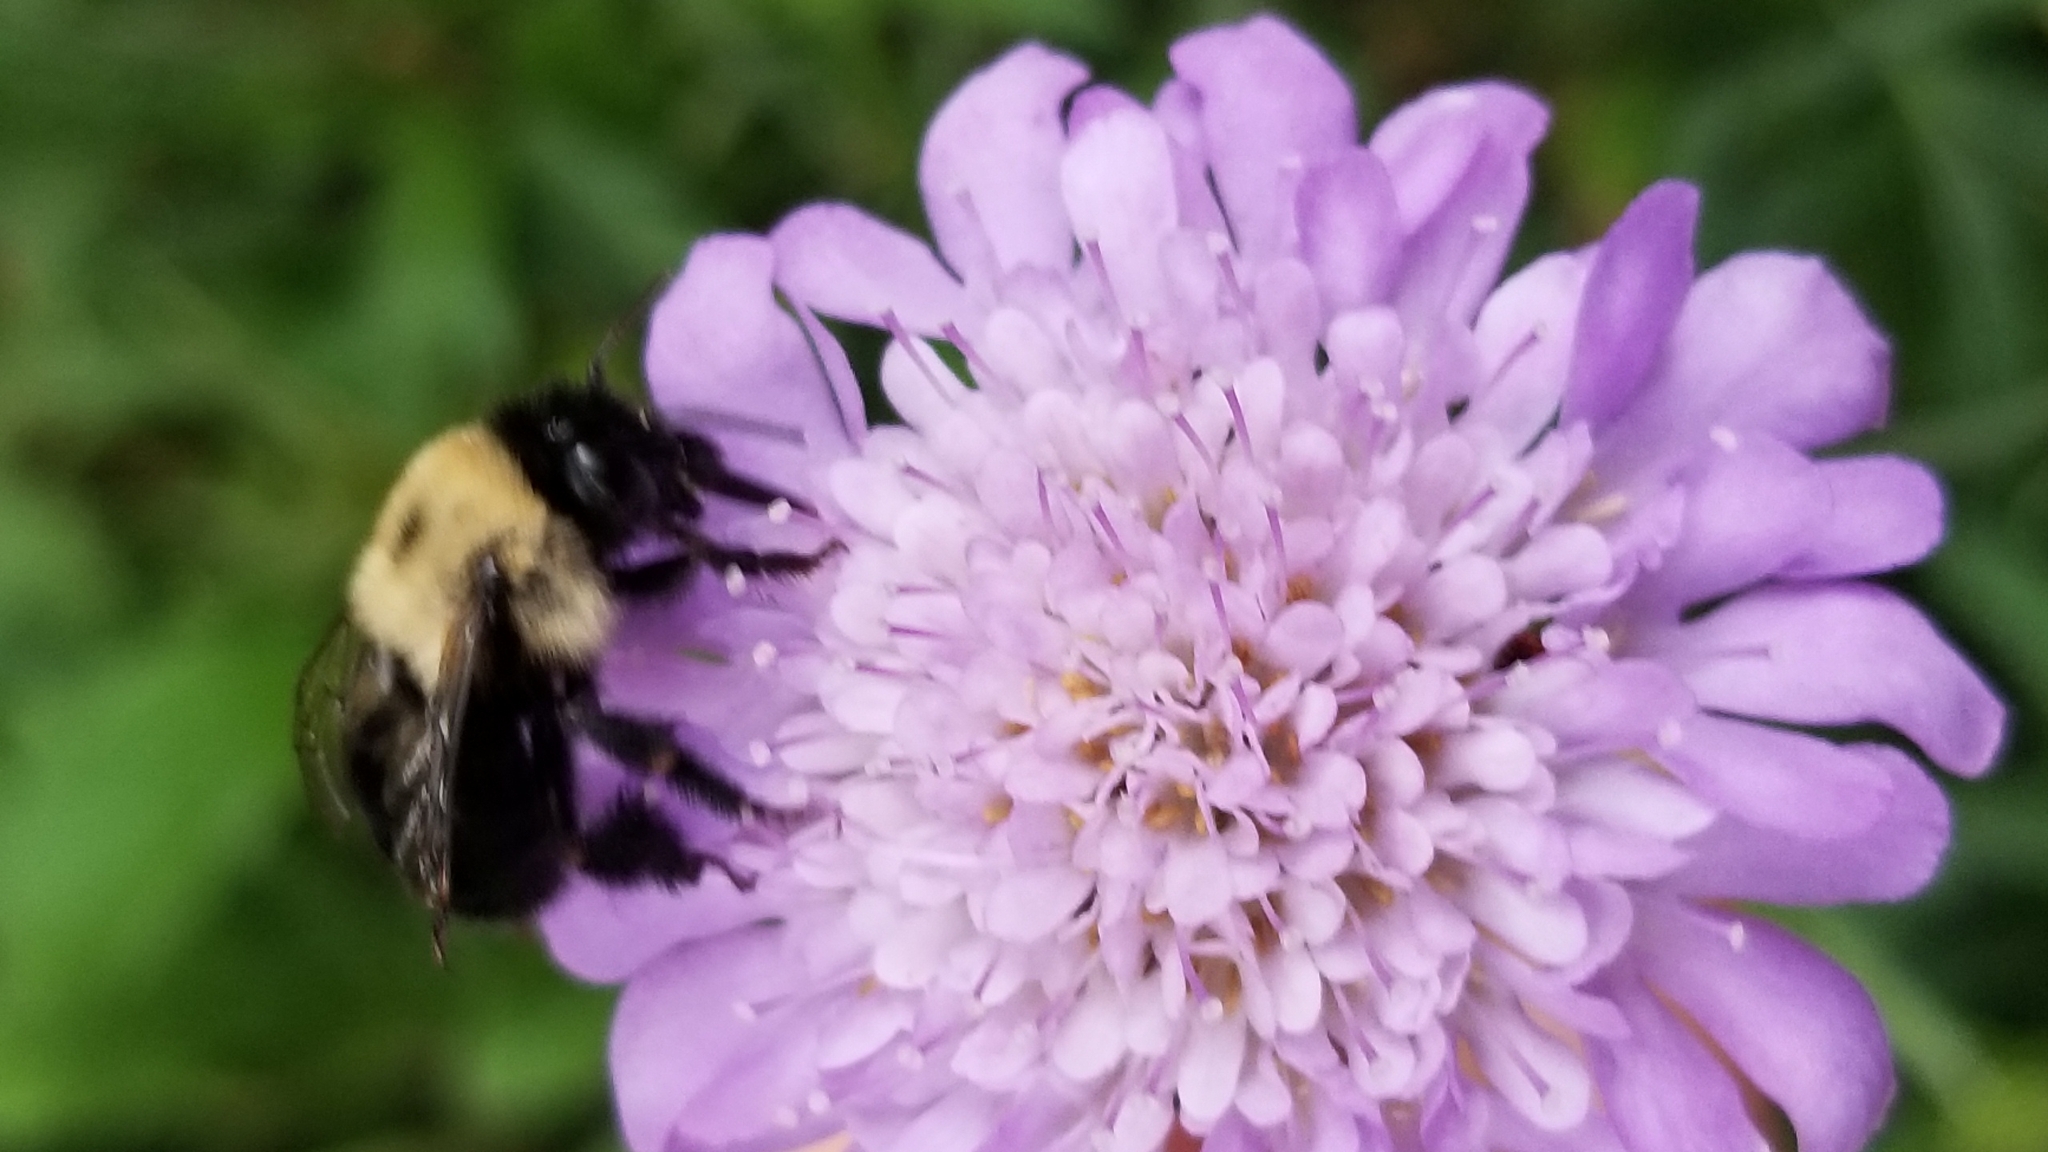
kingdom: Animalia
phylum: Arthropoda
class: Insecta
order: Hymenoptera
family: Apidae
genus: Anthophora
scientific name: Anthophora abrupta
